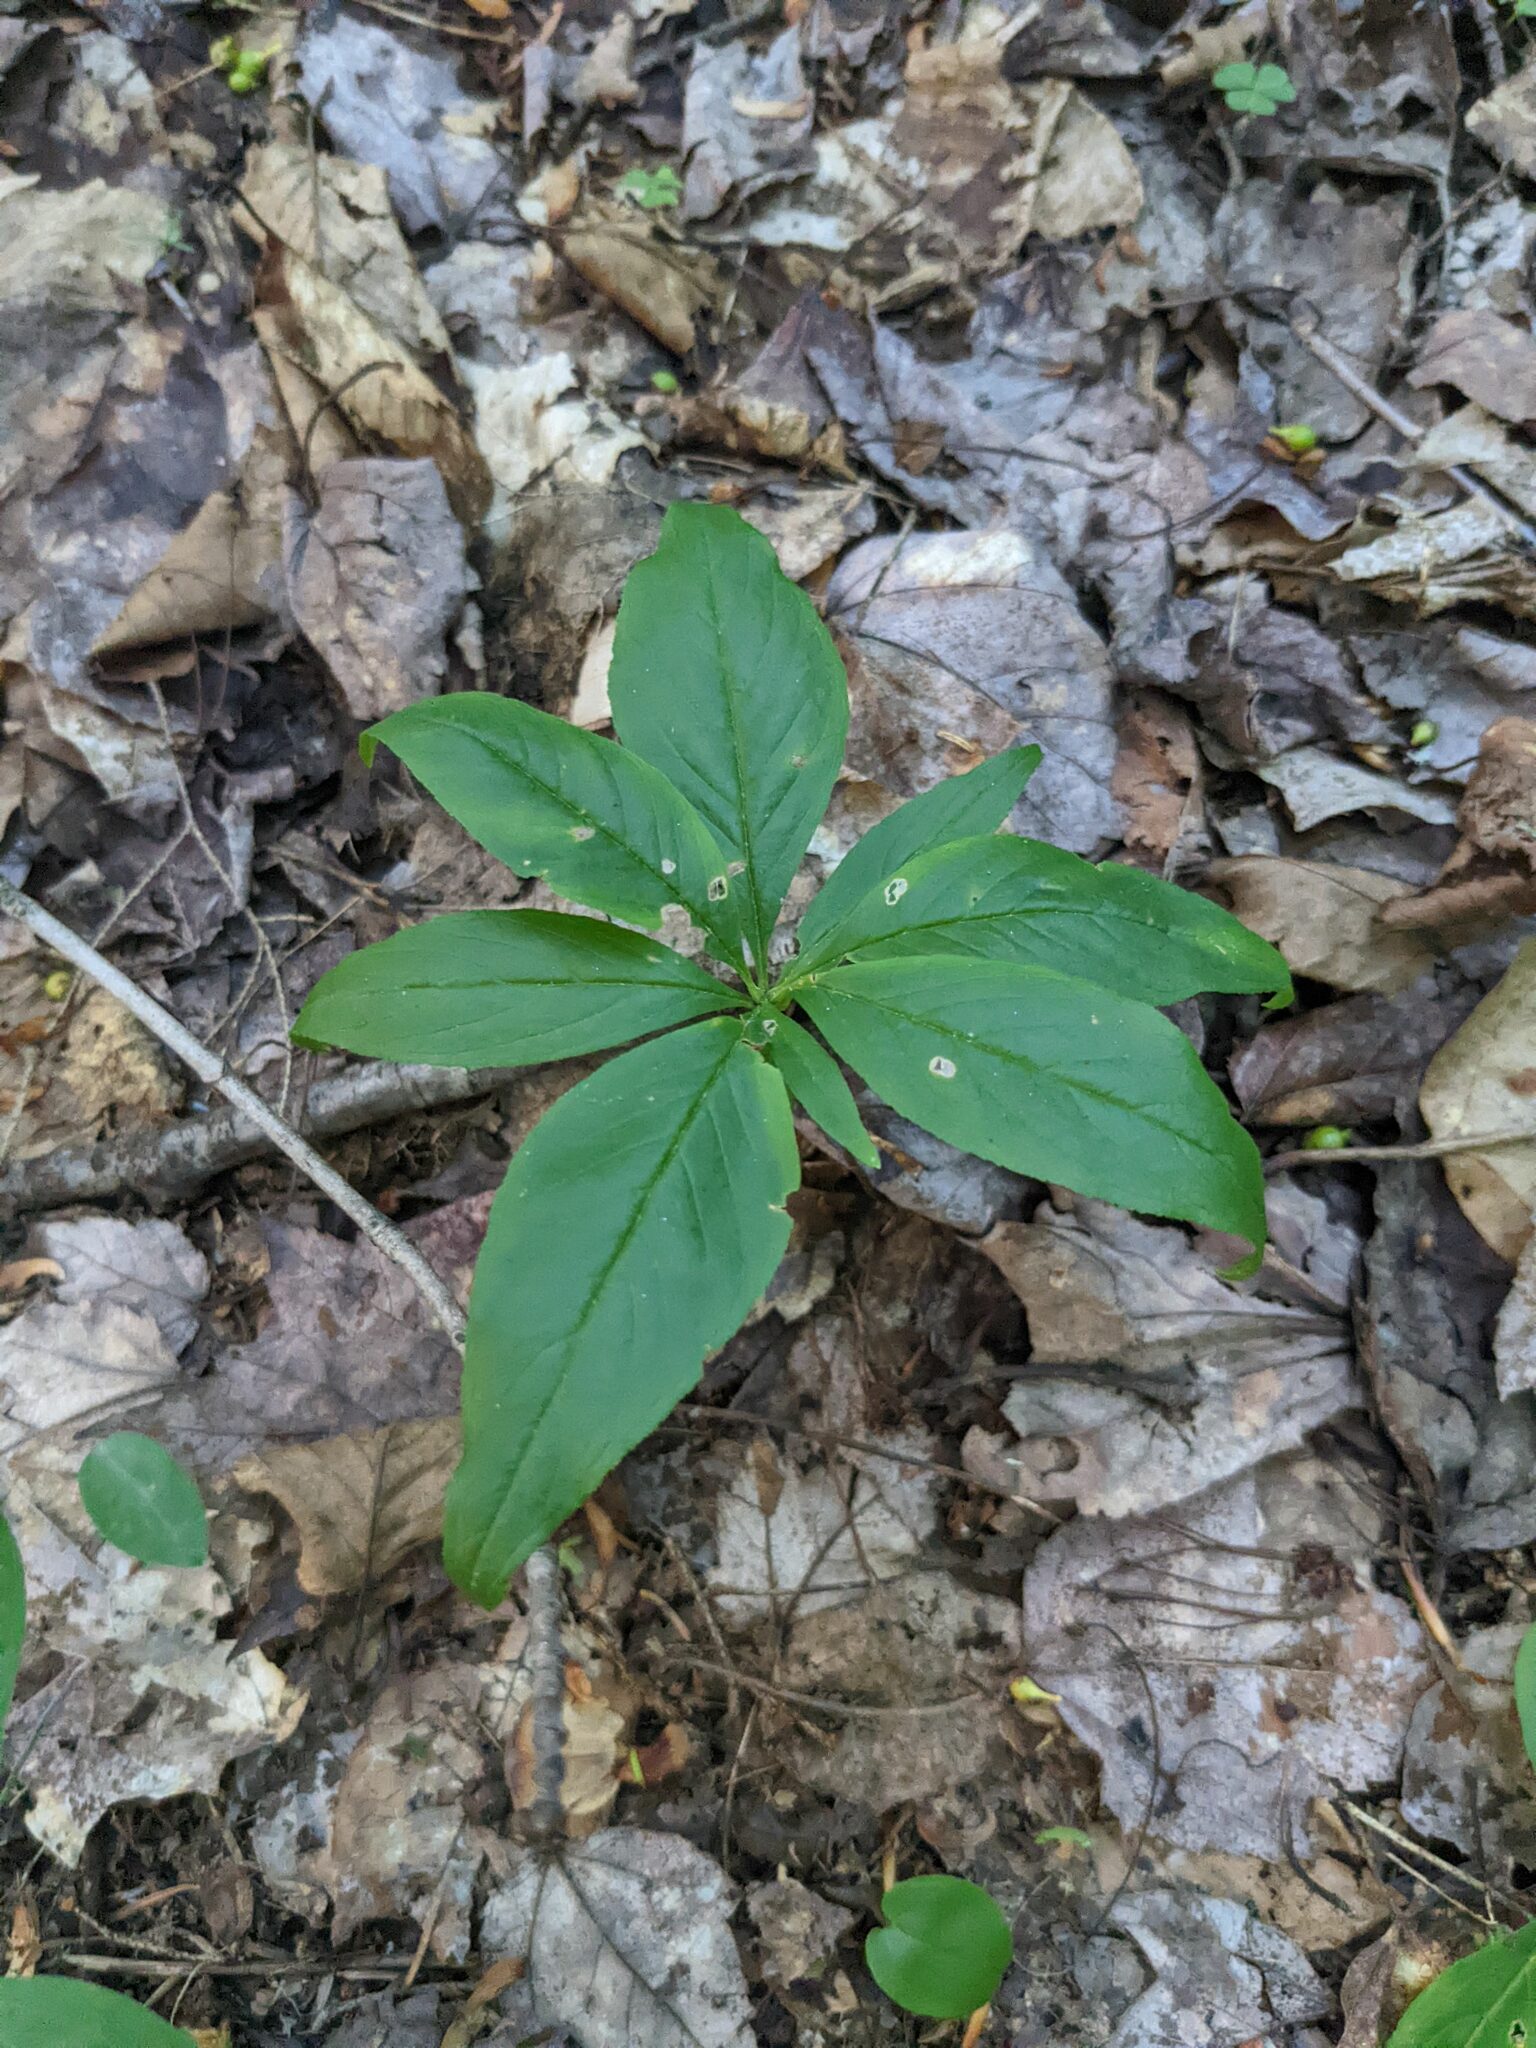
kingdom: Plantae
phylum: Tracheophyta
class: Magnoliopsida
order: Ericales
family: Primulaceae
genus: Lysimachia
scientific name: Lysimachia borealis
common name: American starflower
